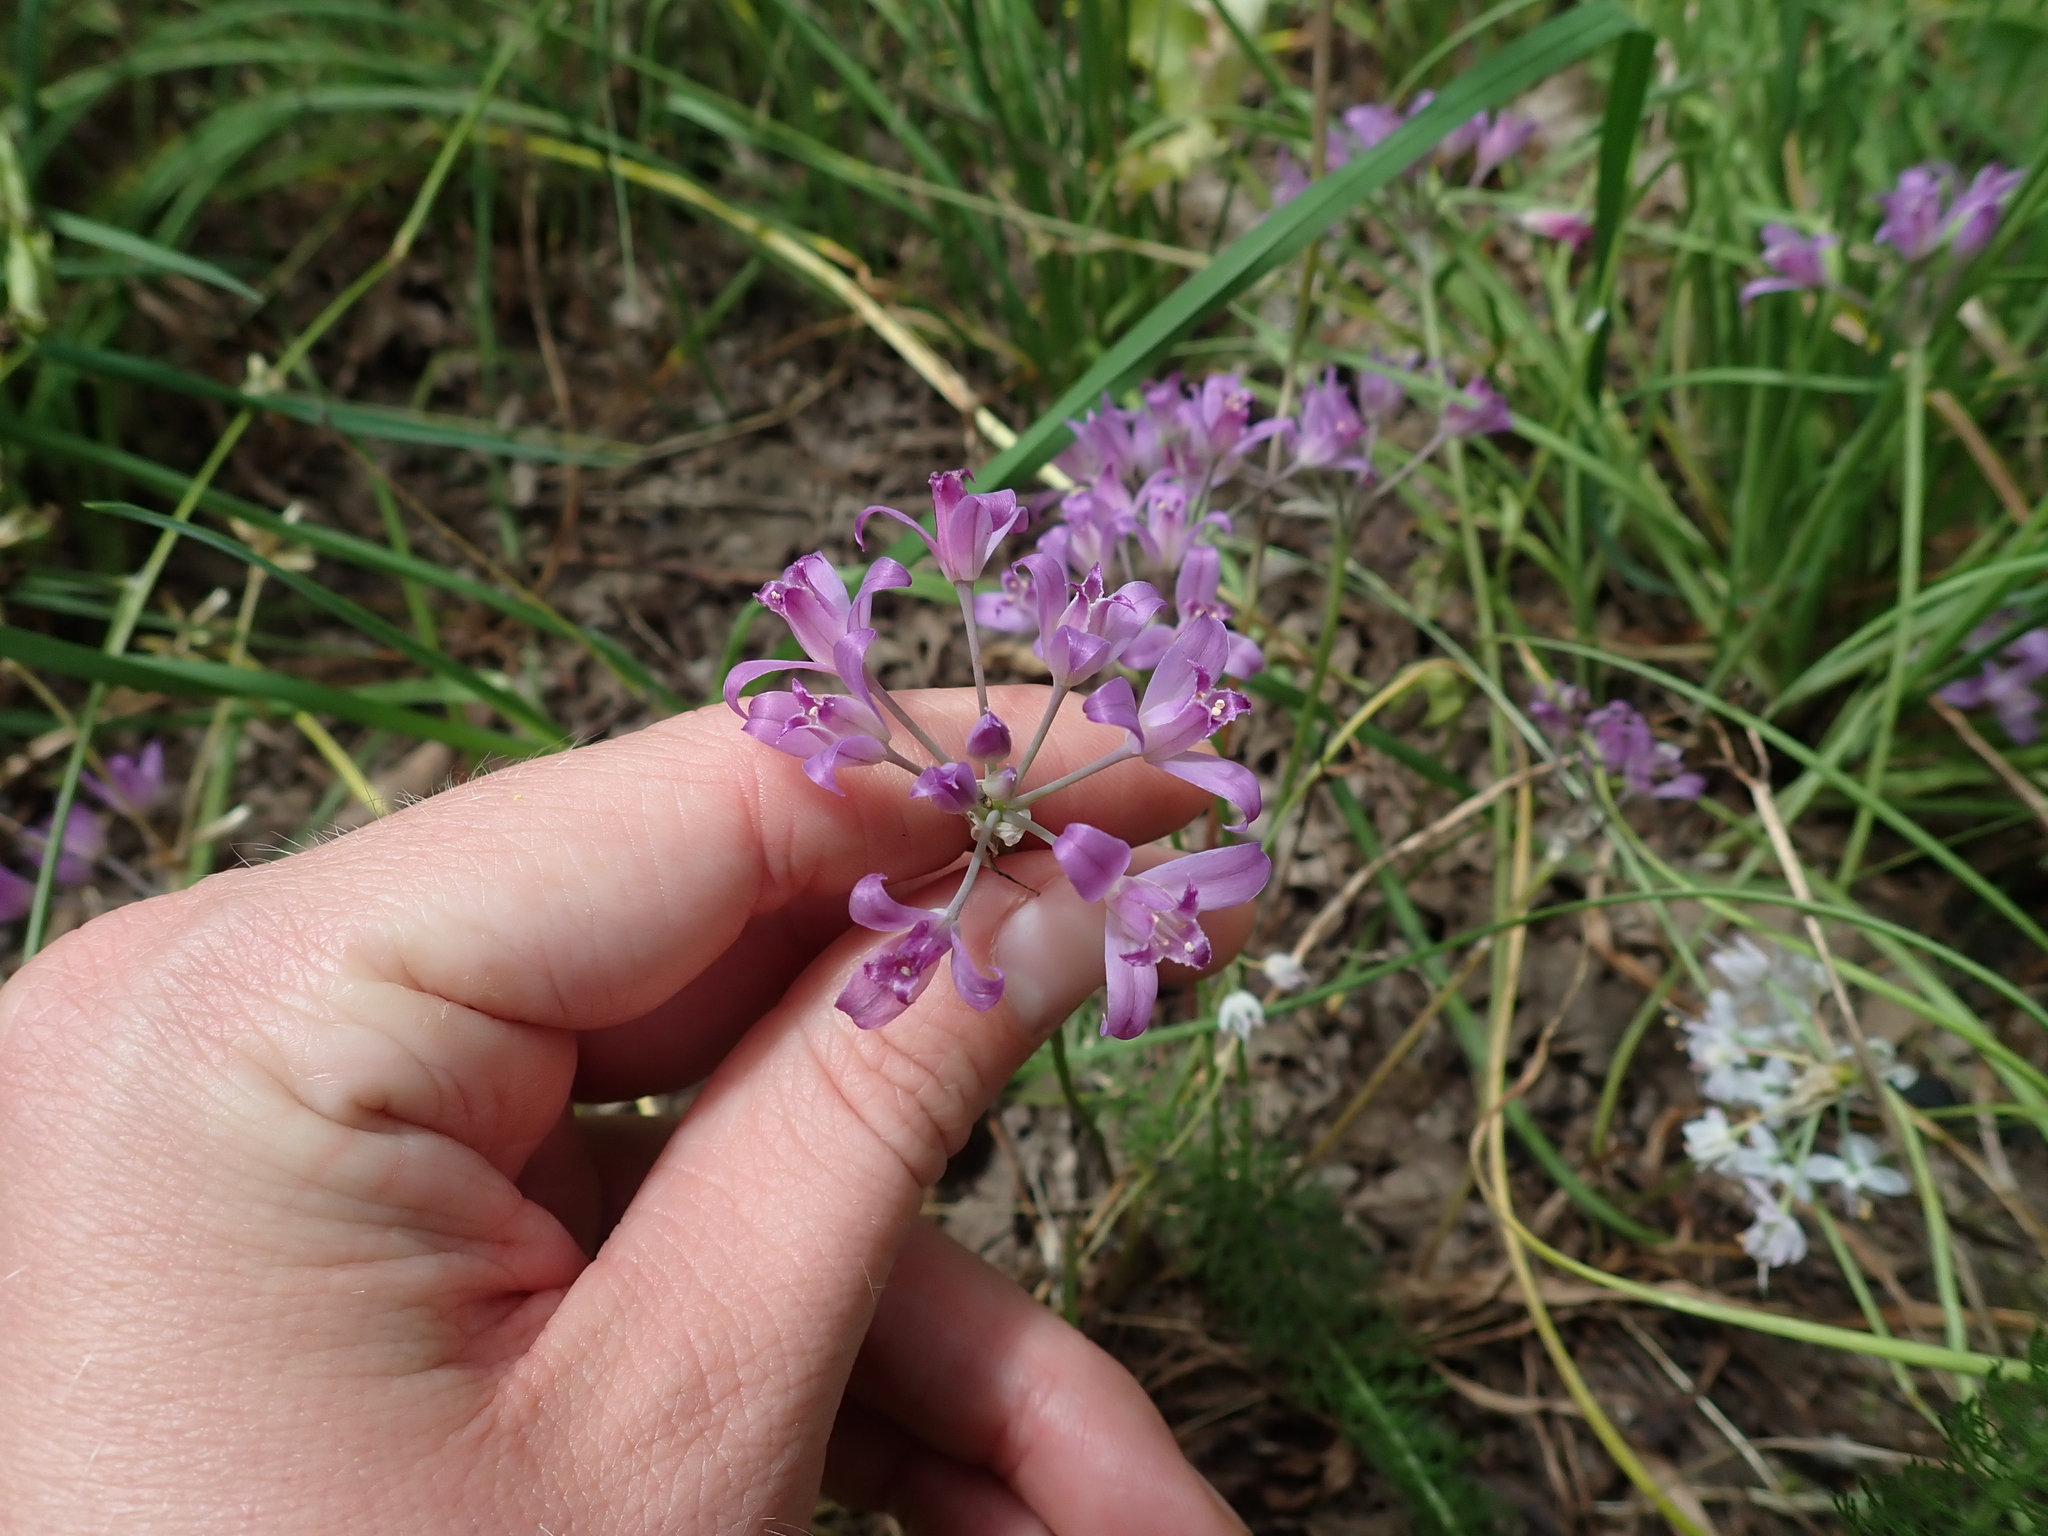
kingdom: Plantae
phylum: Tracheophyta
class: Liliopsida
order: Asparagales
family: Amaryllidaceae
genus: Allium
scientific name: Allium acuminatum
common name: Hooker's onion
